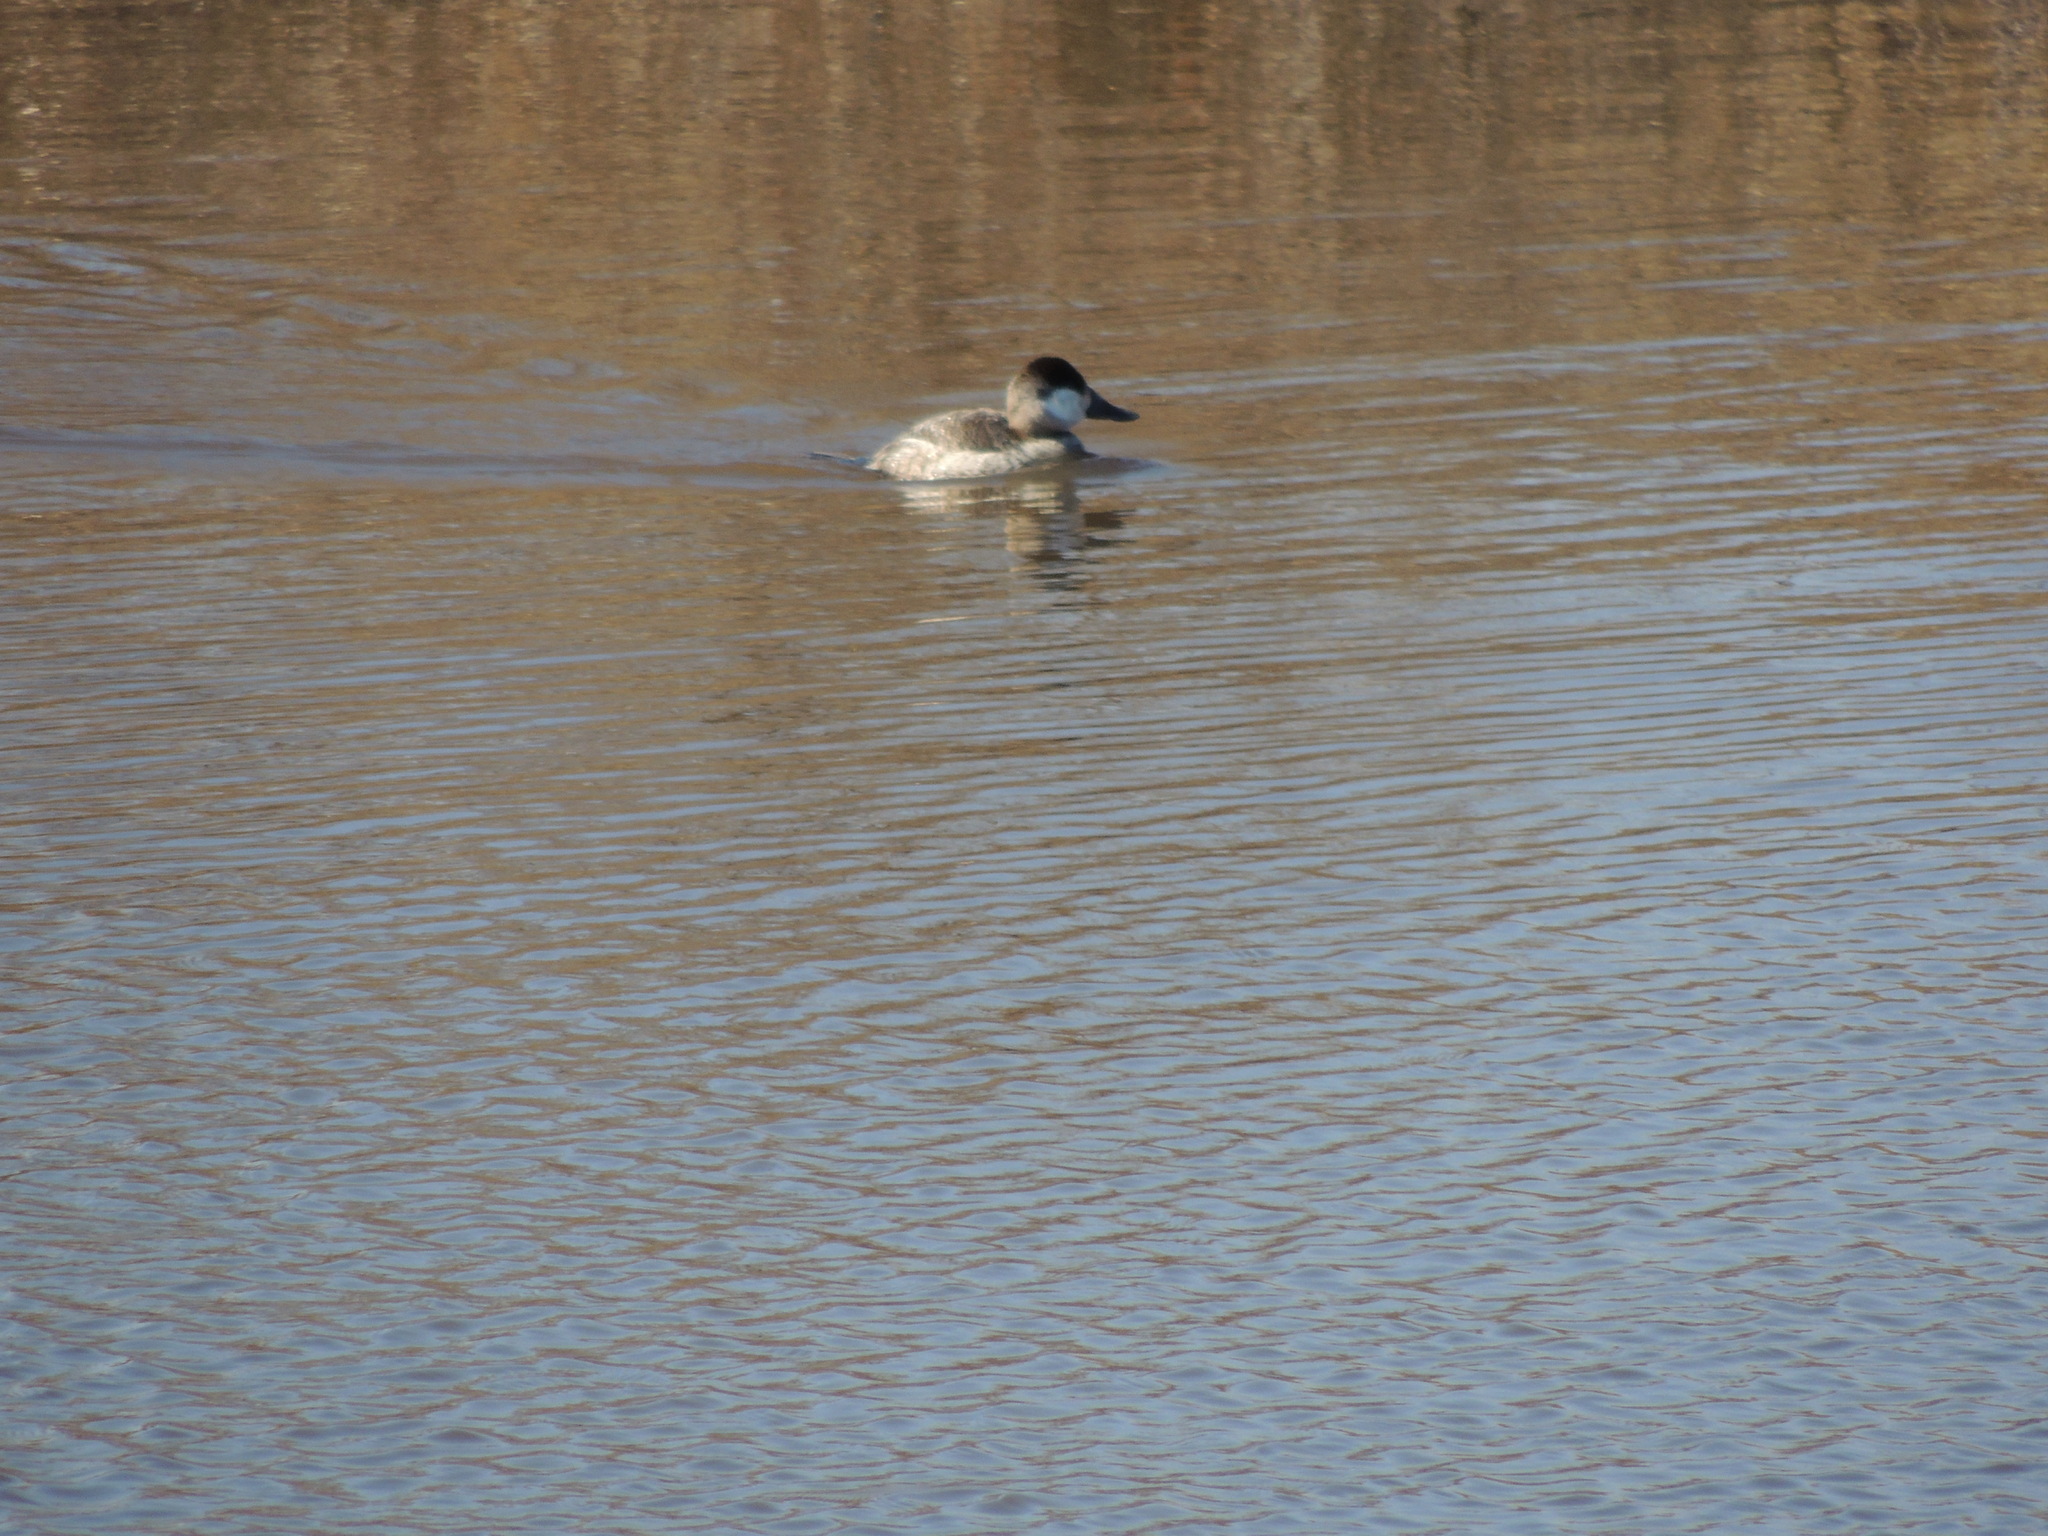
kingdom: Animalia
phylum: Chordata
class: Aves
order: Anseriformes
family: Anatidae
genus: Oxyura
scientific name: Oxyura jamaicensis
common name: Ruddy duck
